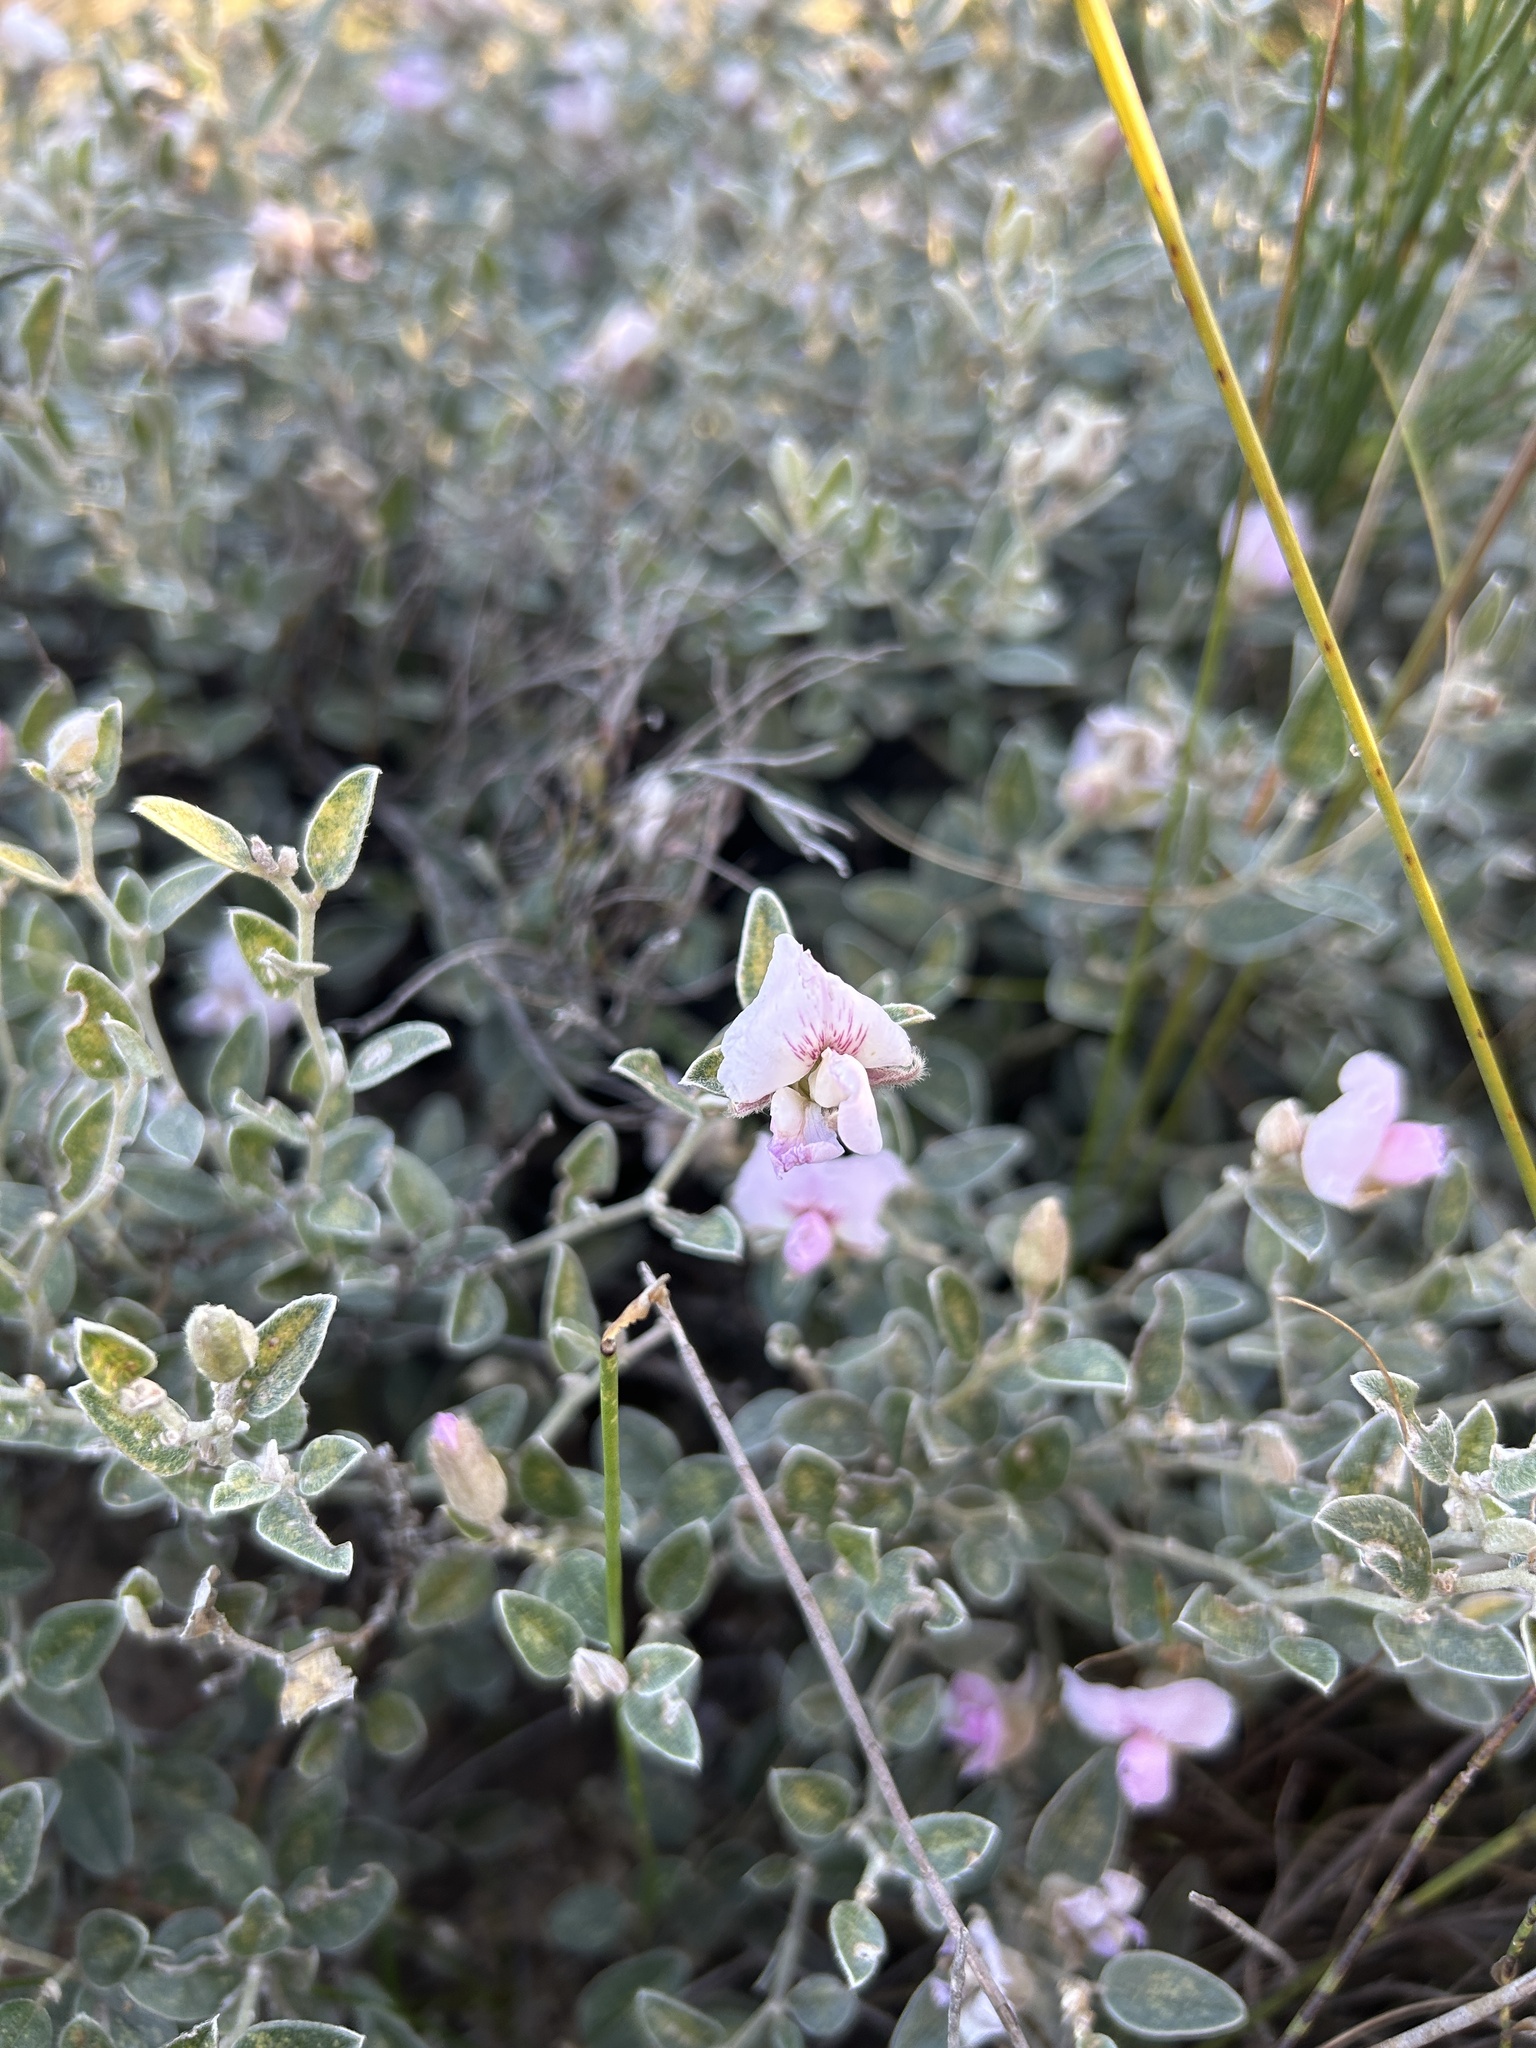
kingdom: Plantae
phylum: Tracheophyta
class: Magnoliopsida
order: Fabales
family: Fabaceae
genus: Podalyria
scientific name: Podalyria burchellii
